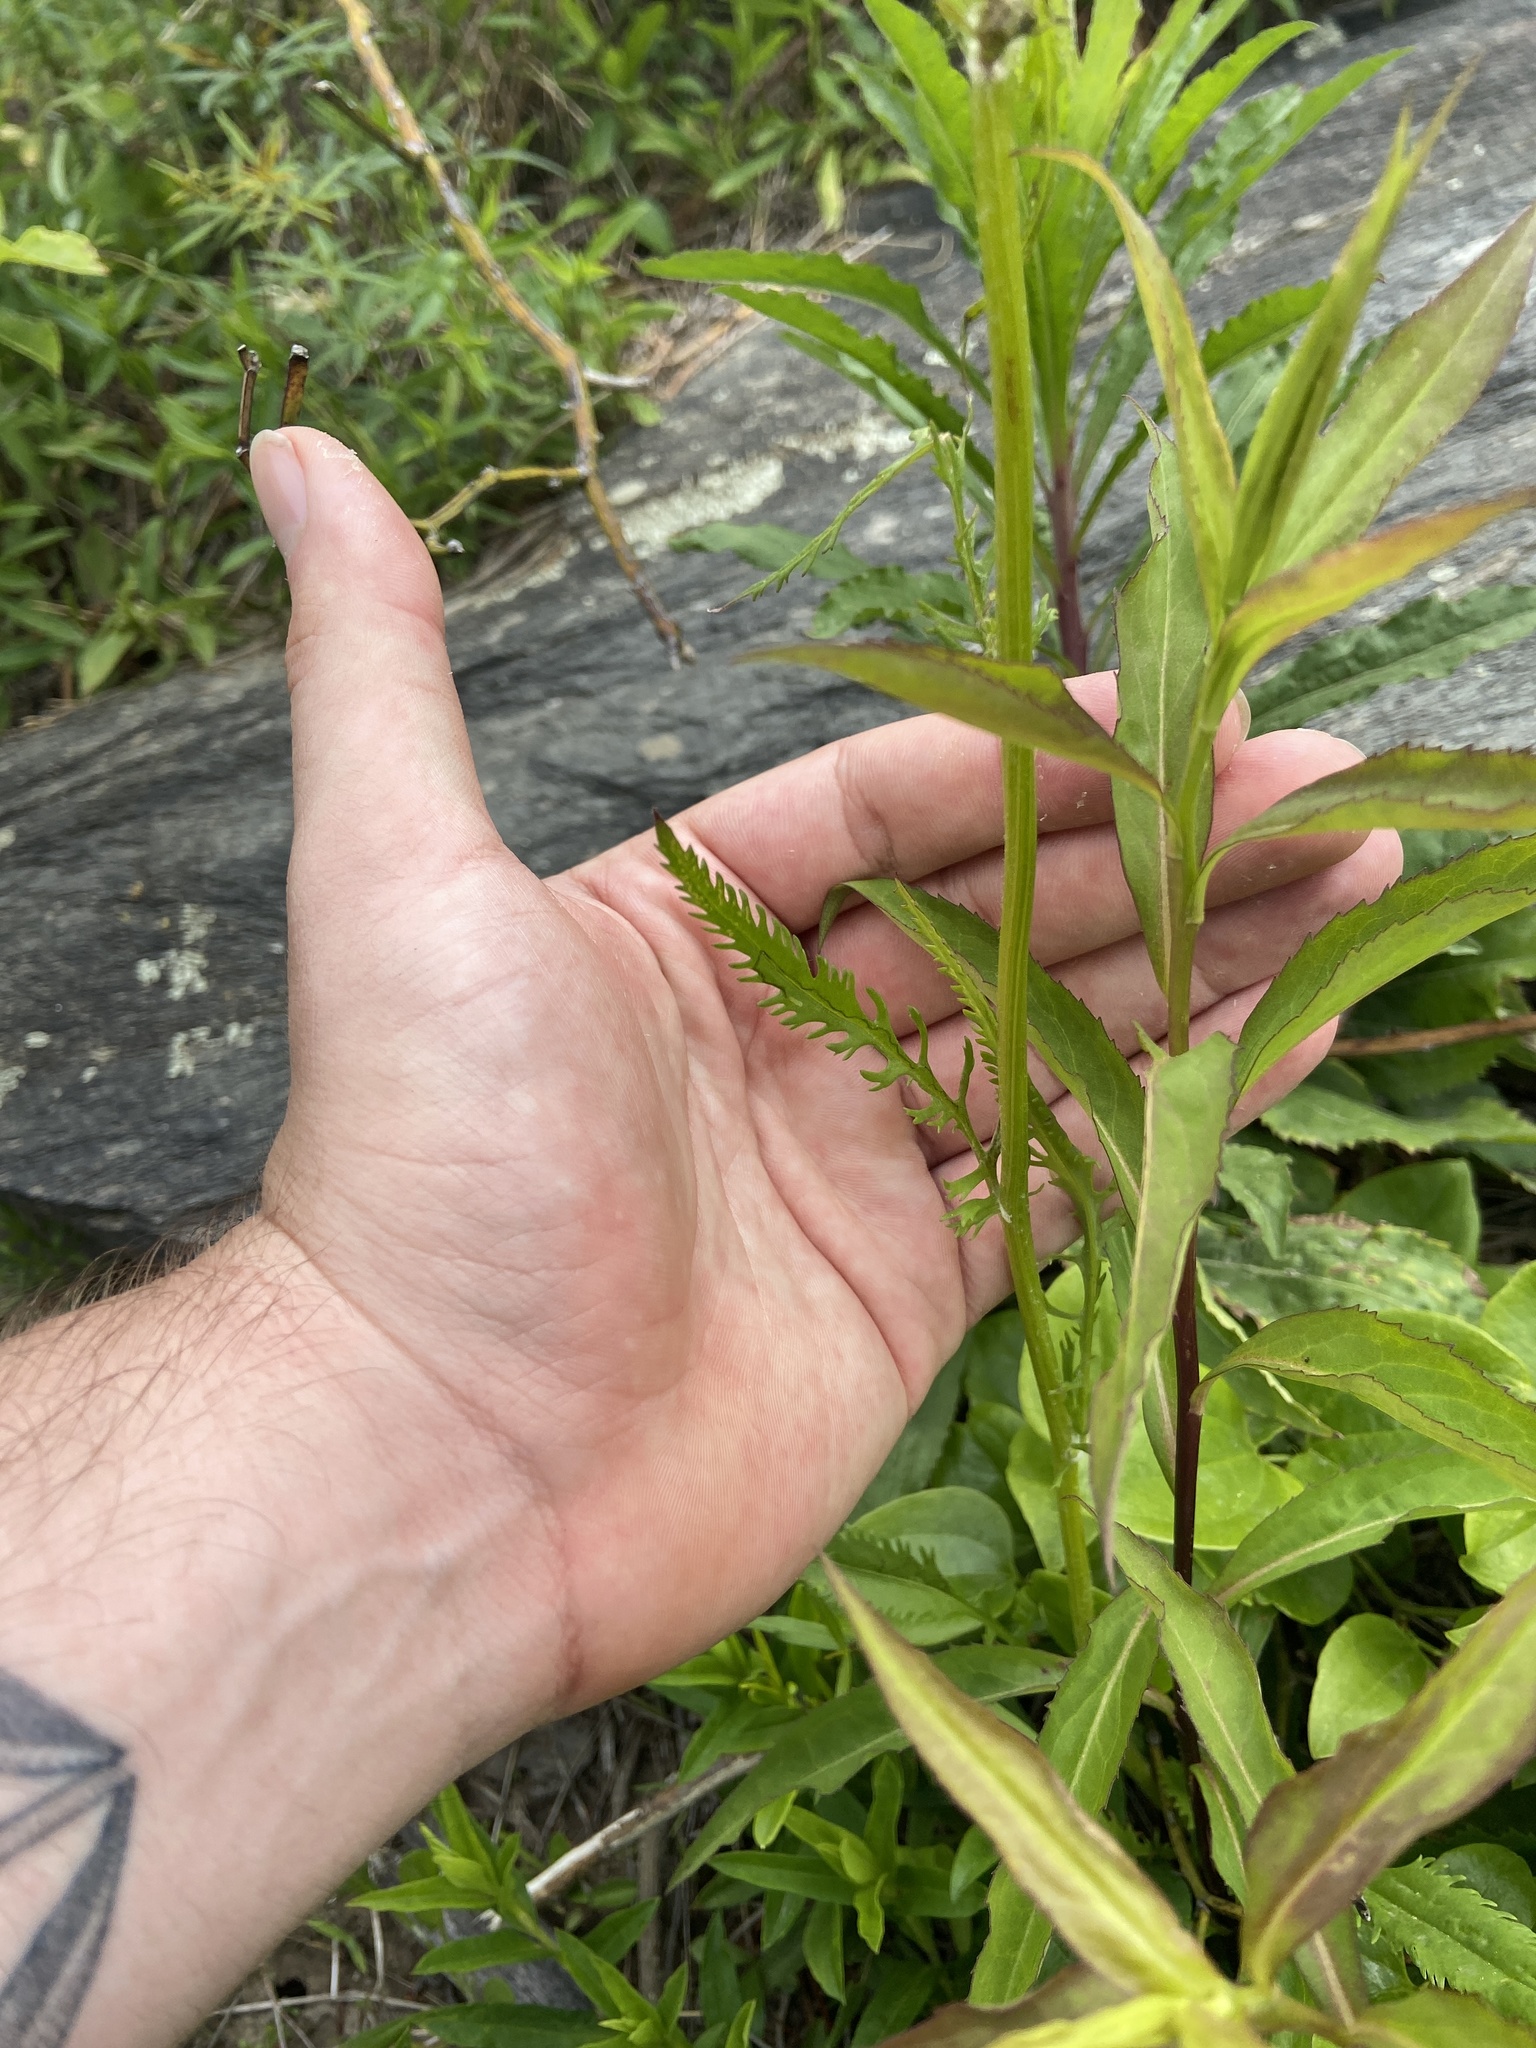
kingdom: Plantae
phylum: Tracheophyta
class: Magnoliopsida
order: Asterales
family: Asteraceae
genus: Packera
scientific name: Packera anonyma
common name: Small ragwort
